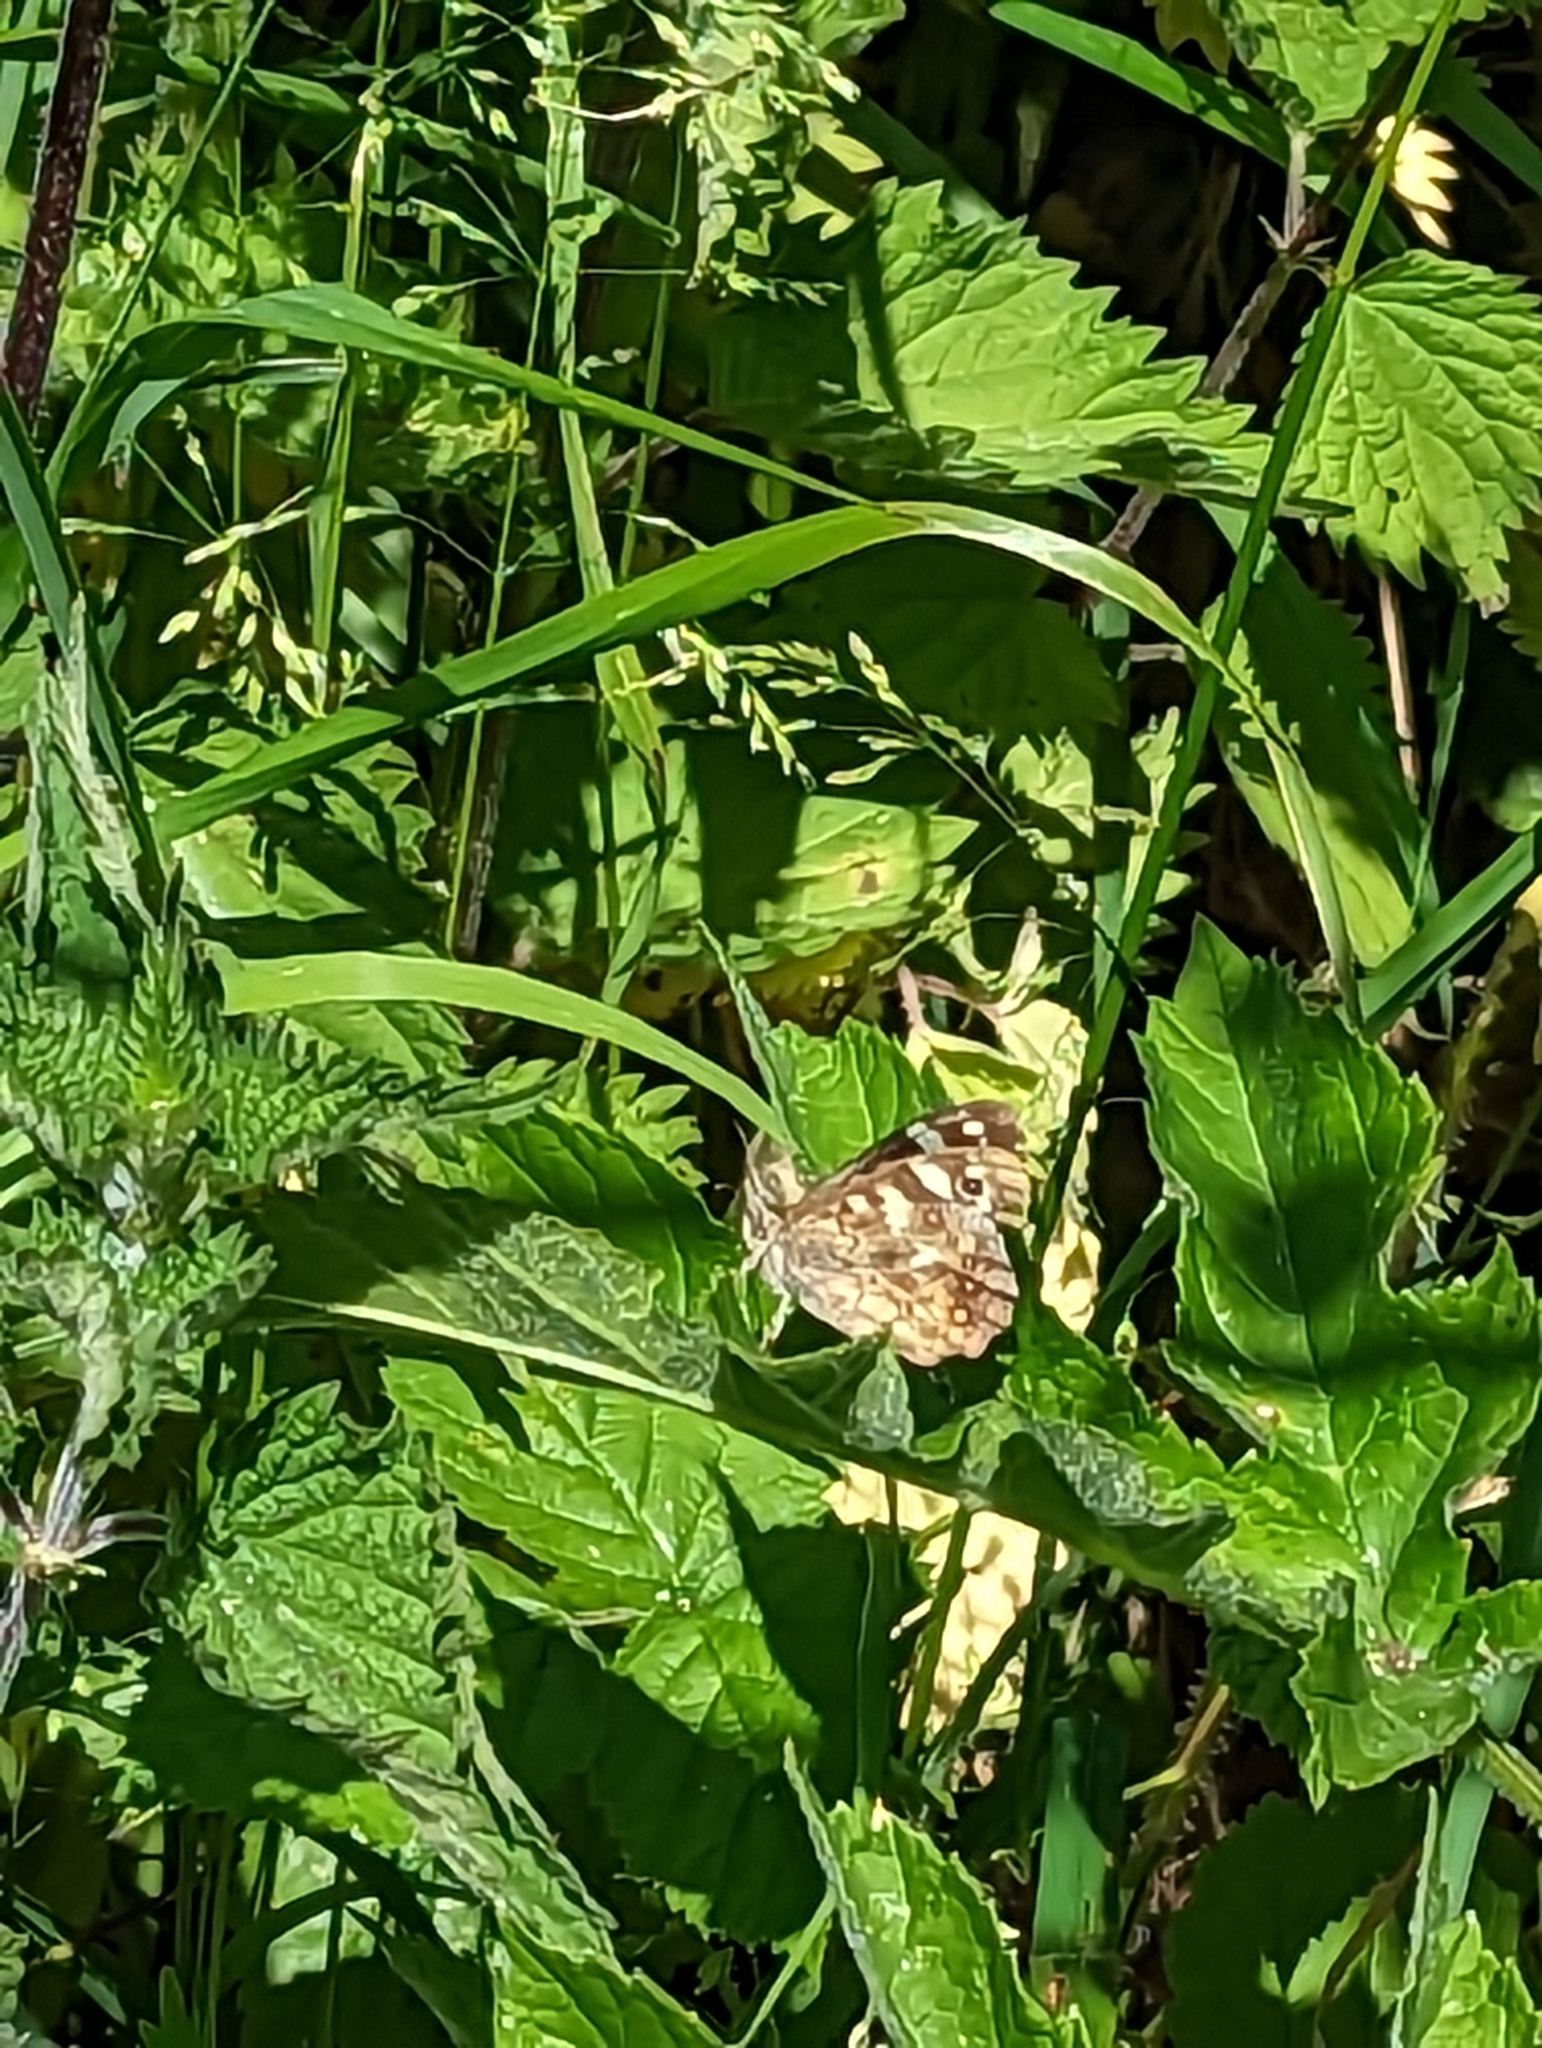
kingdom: Animalia
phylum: Arthropoda
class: Insecta
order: Lepidoptera
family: Nymphalidae
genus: Pararge
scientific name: Pararge aegeria
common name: Speckled wood
